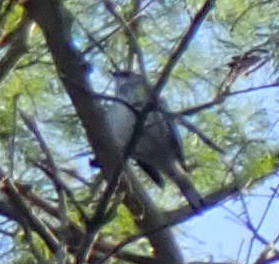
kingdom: Animalia
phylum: Chordata
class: Aves
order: Passeriformes
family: Parulidae
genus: Setophaga
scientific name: Setophaga coronata
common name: Myrtle warbler
